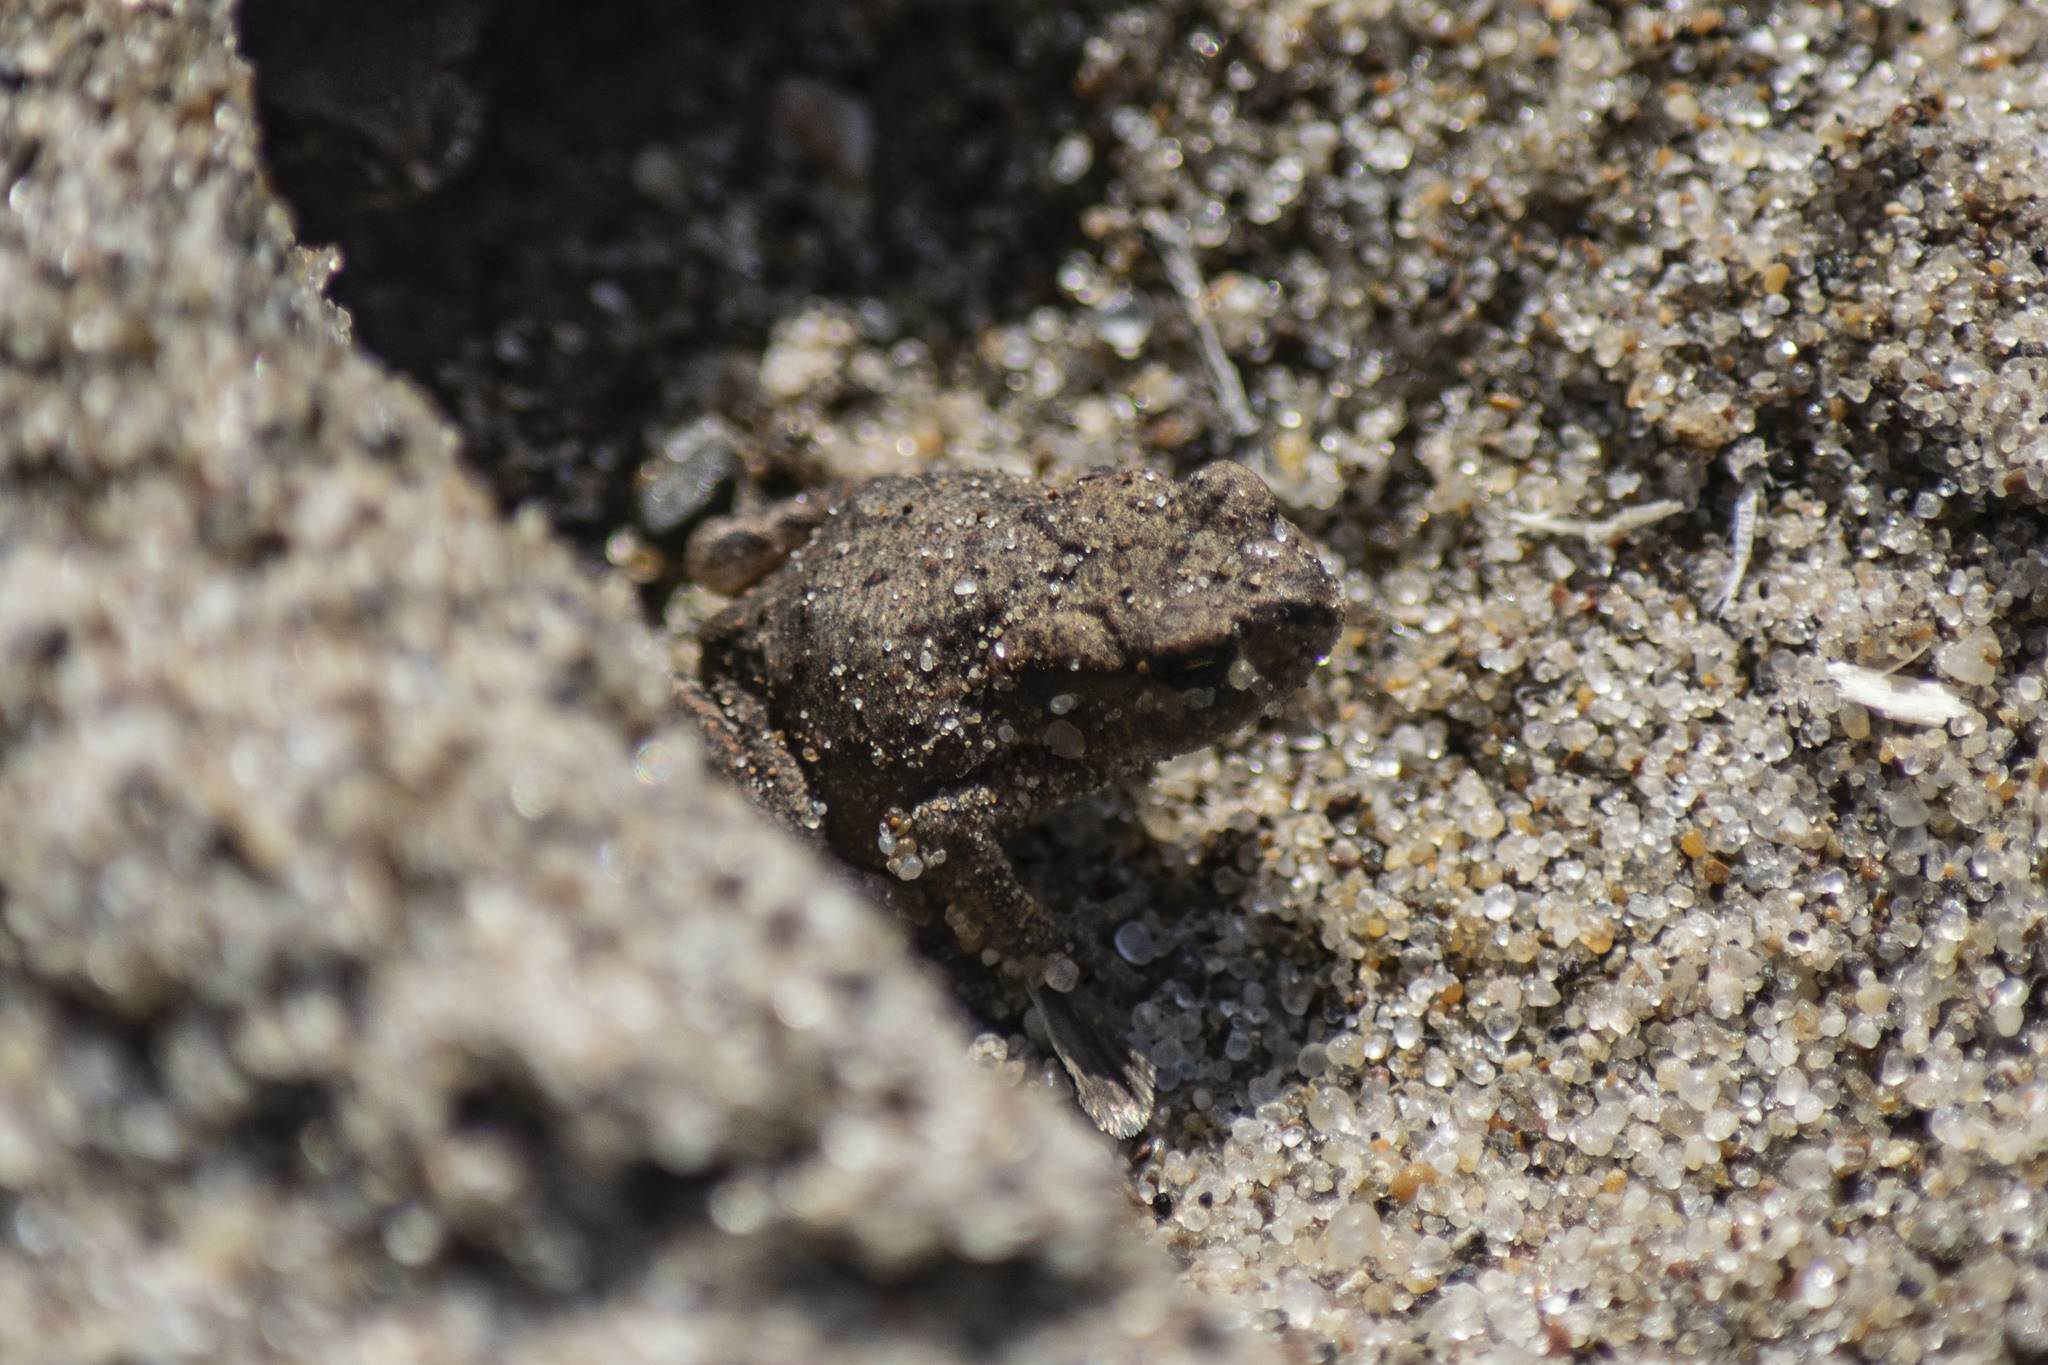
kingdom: Animalia
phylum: Chordata
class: Amphibia
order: Anura
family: Bufonidae
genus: Bufo
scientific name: Bufo bufo
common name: Common toad
